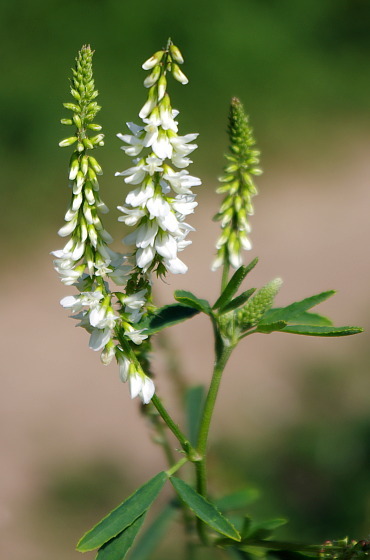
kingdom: Plantae
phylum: Tracheophyta
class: Magnoliopsida
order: Fabales
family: Fabaceae
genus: Melilotus
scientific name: Melilotus albus
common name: White melilot
